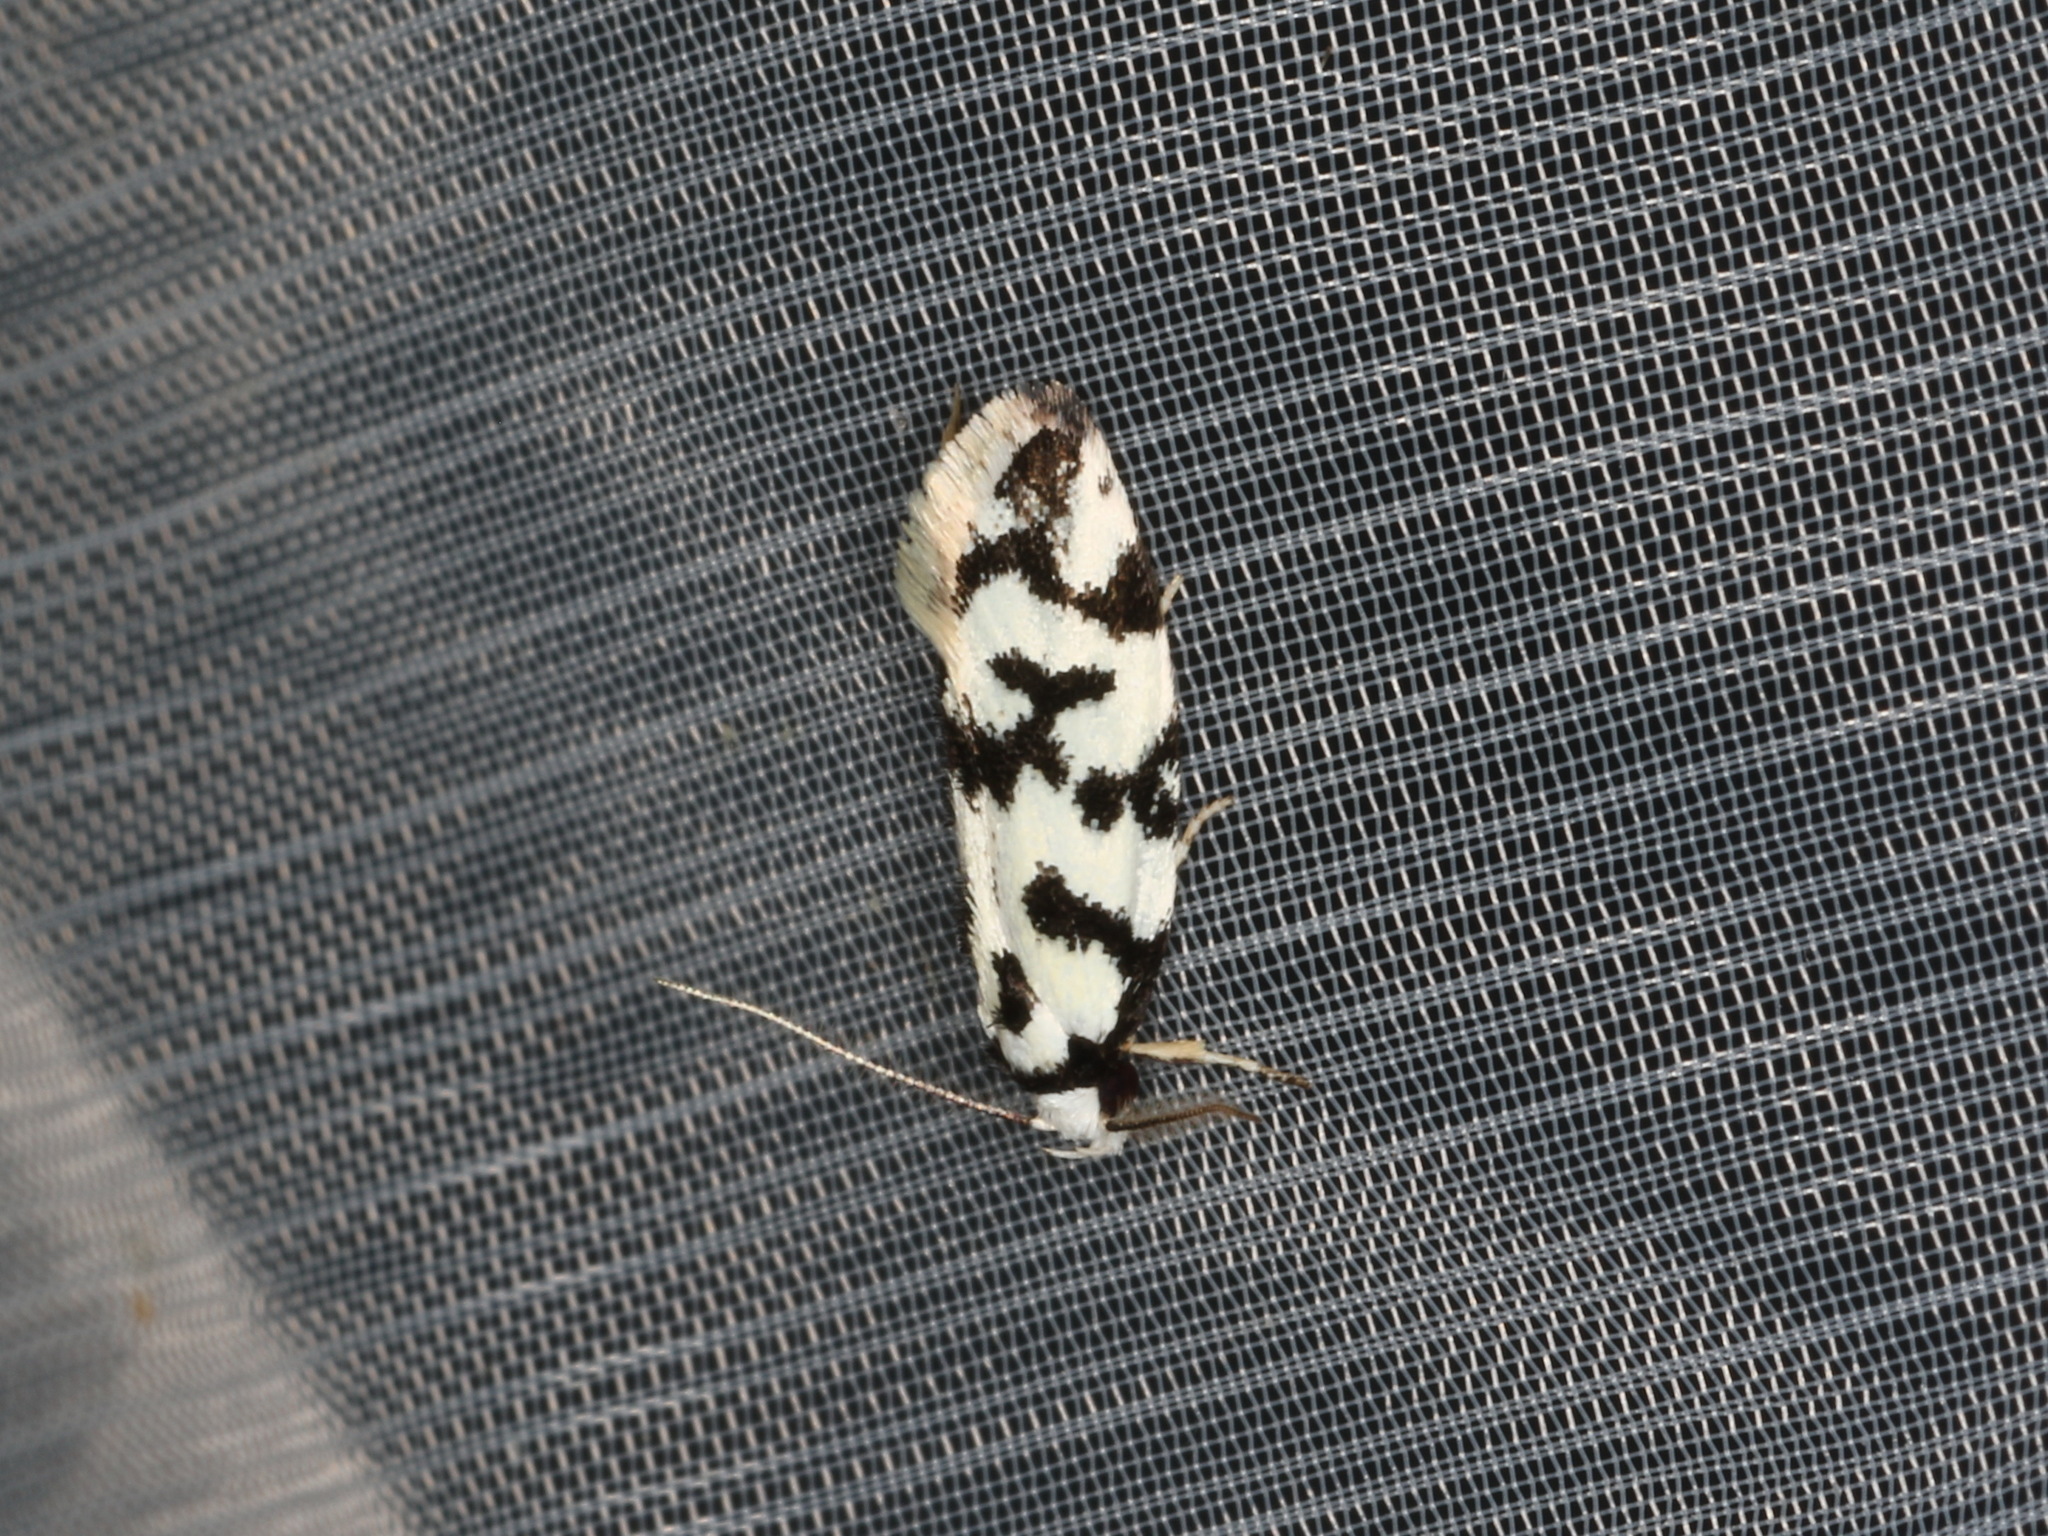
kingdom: Animalia
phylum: Arthropoda
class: Insecta
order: Lepidoptera
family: Oecophoridae
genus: Cosmaresta
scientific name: Cosmaresta charaxias
